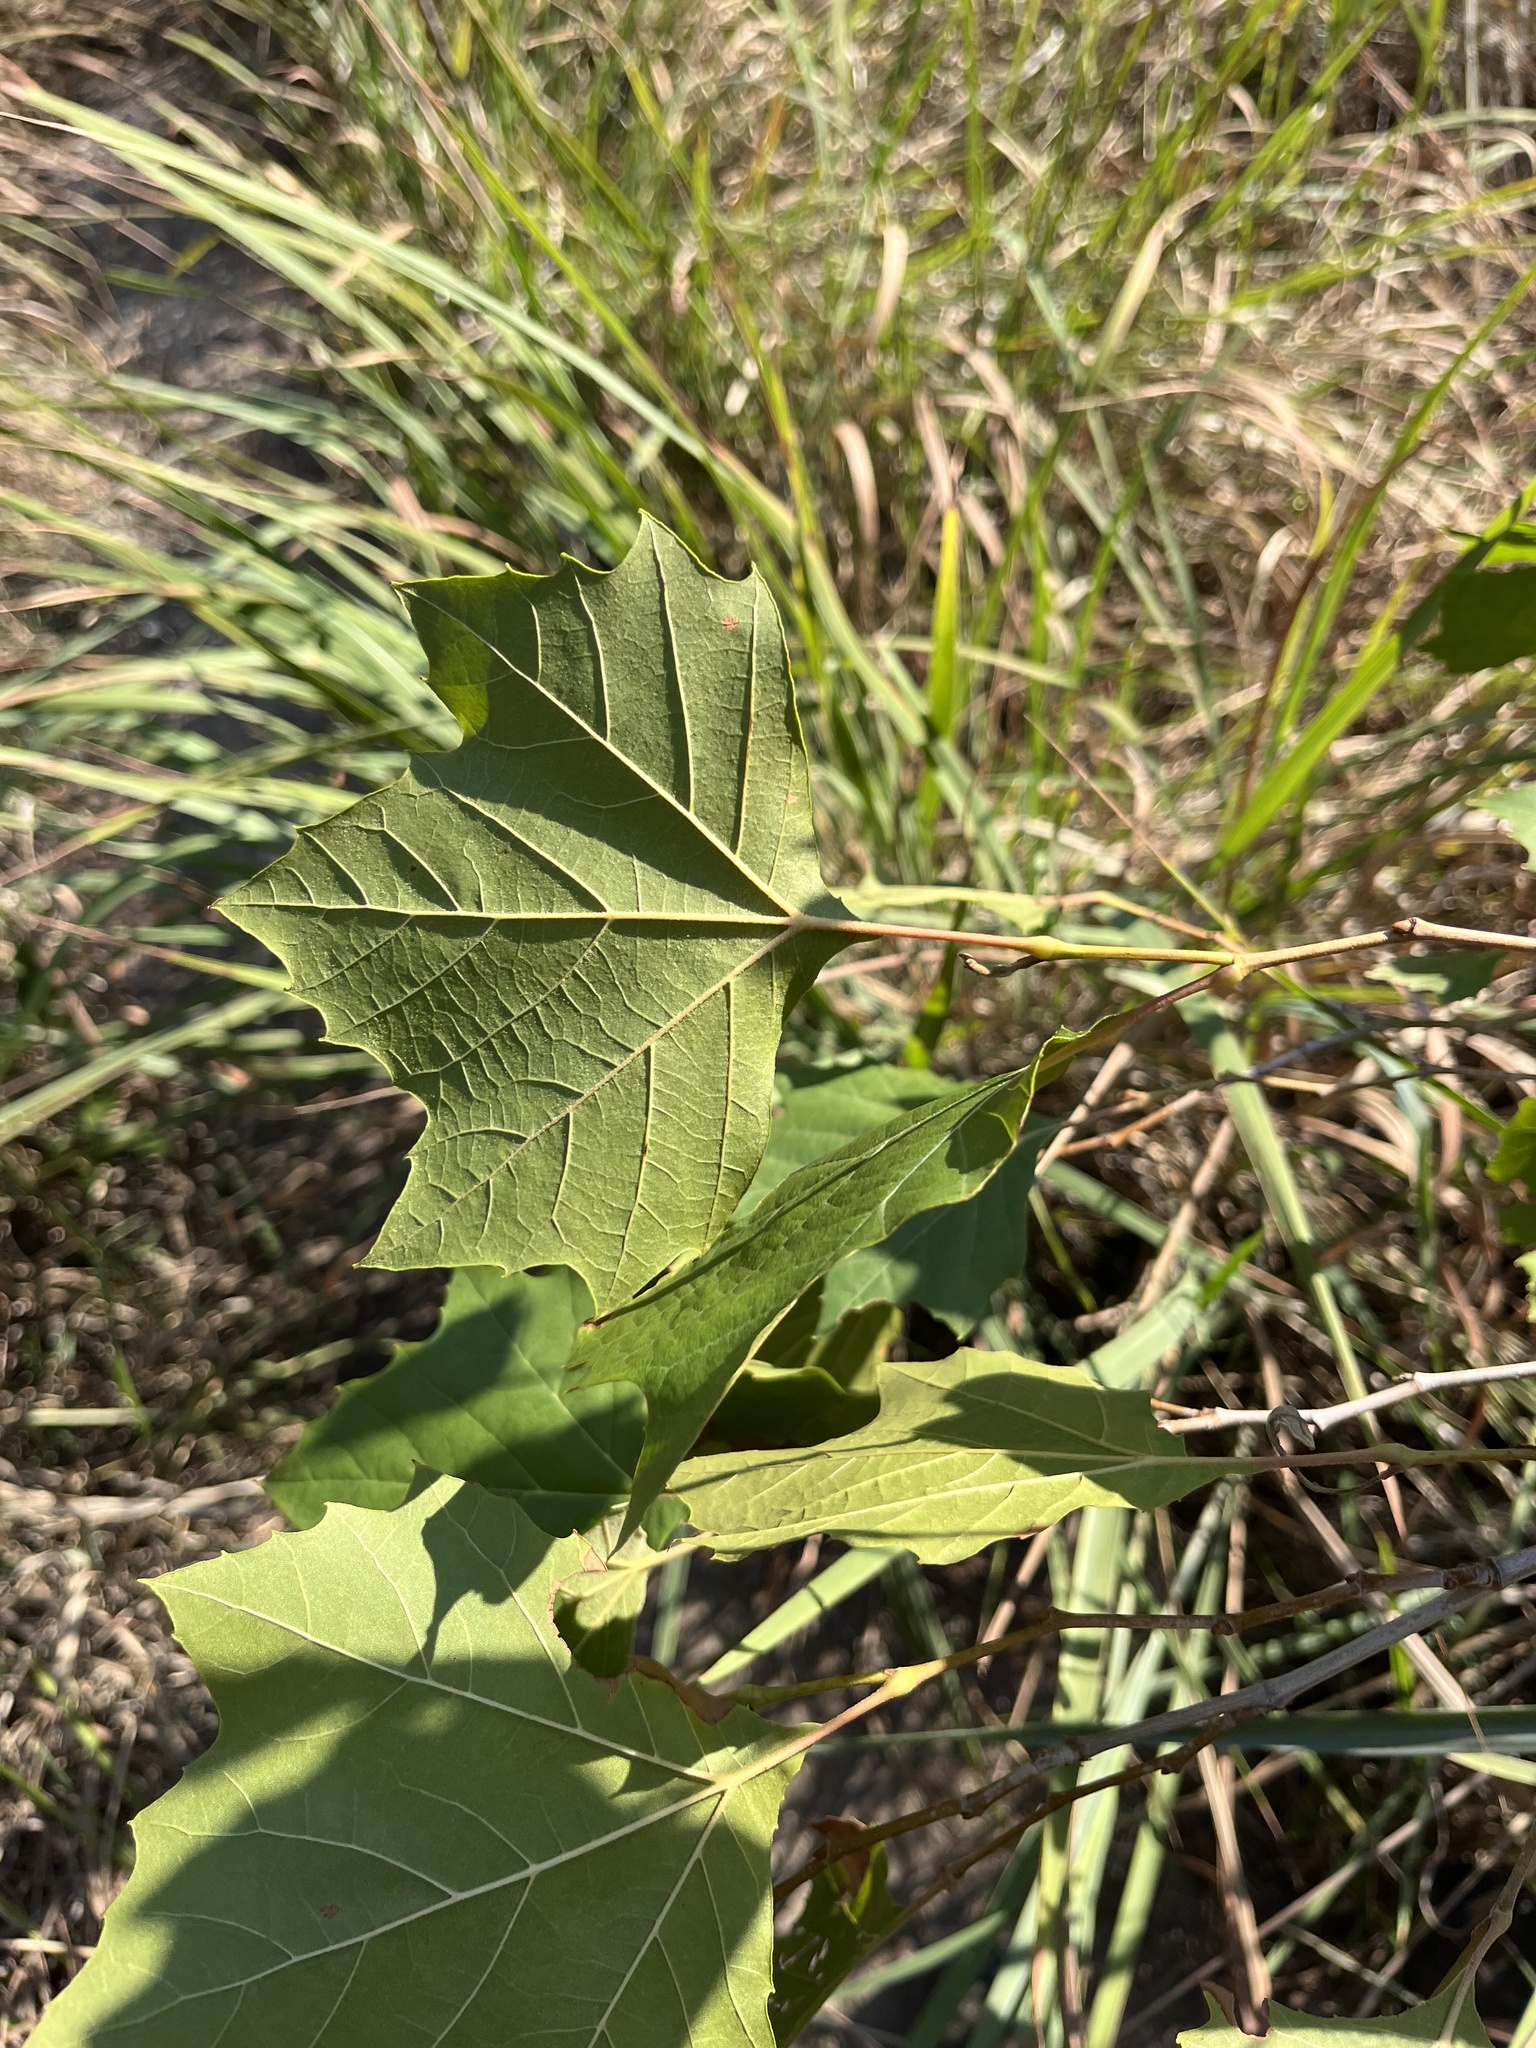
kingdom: Plantae
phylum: Tracheophyta
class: Magnoliopsida
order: Proteales
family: Platanaceae
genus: Platanus
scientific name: Platanus occidentalis
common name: American sycamore
